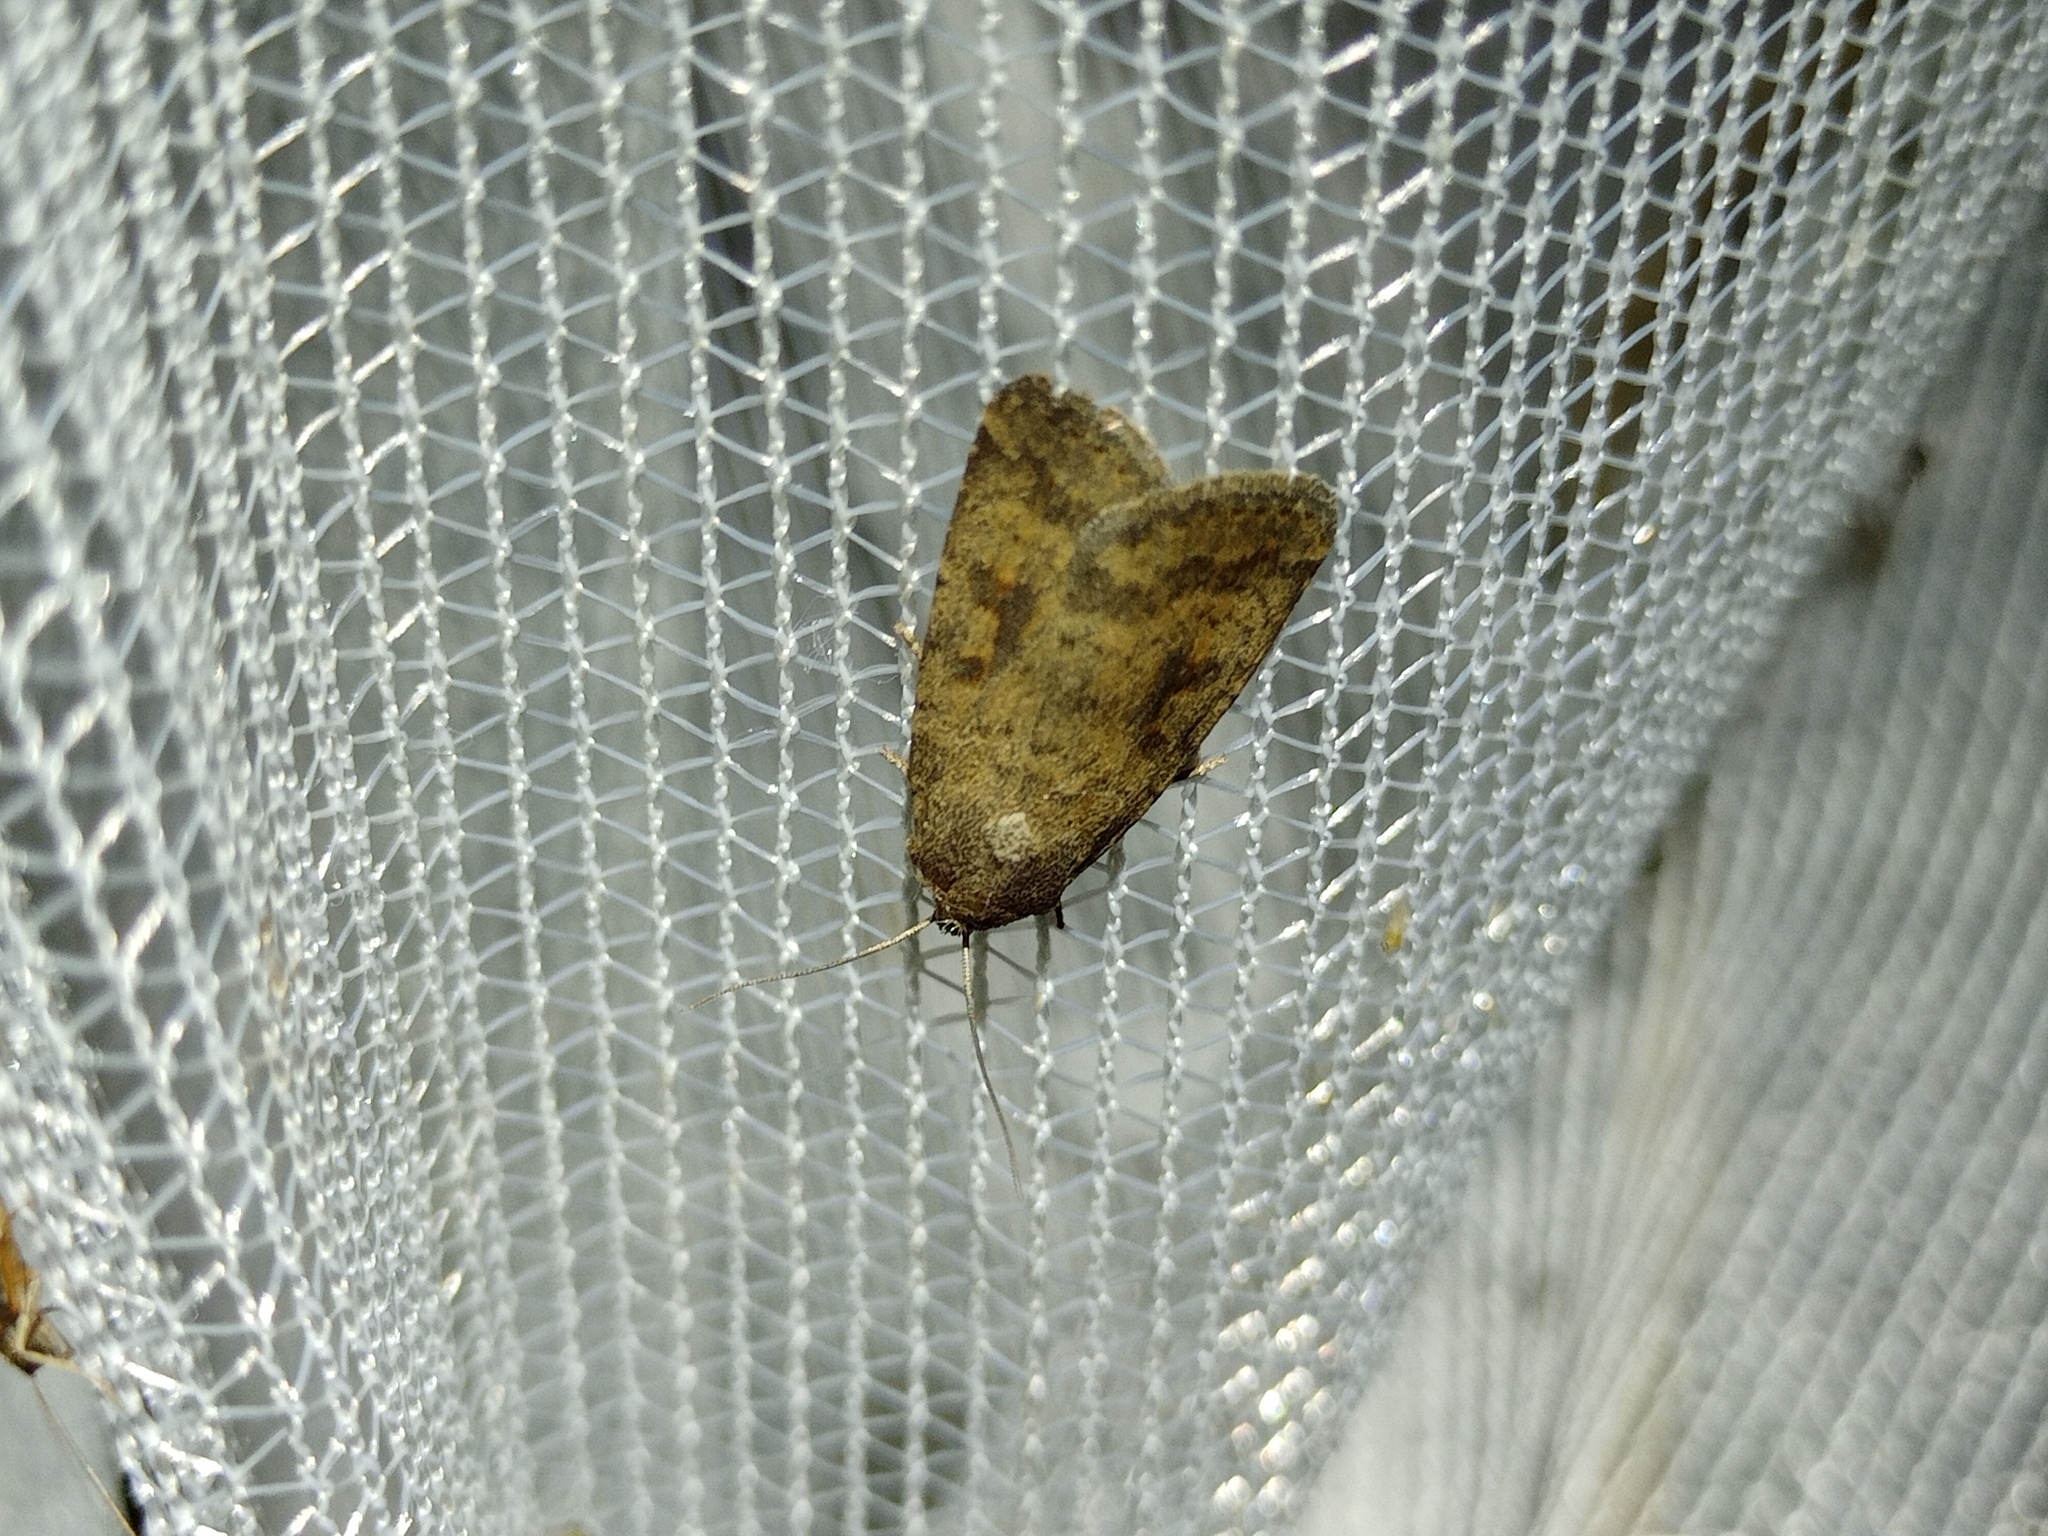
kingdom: Animalia
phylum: Arthropoda
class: Insecta
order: Lepidoptera
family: Noctuidae
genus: Caradrina
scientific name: Caradrina morpheus
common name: Mottled rustic
